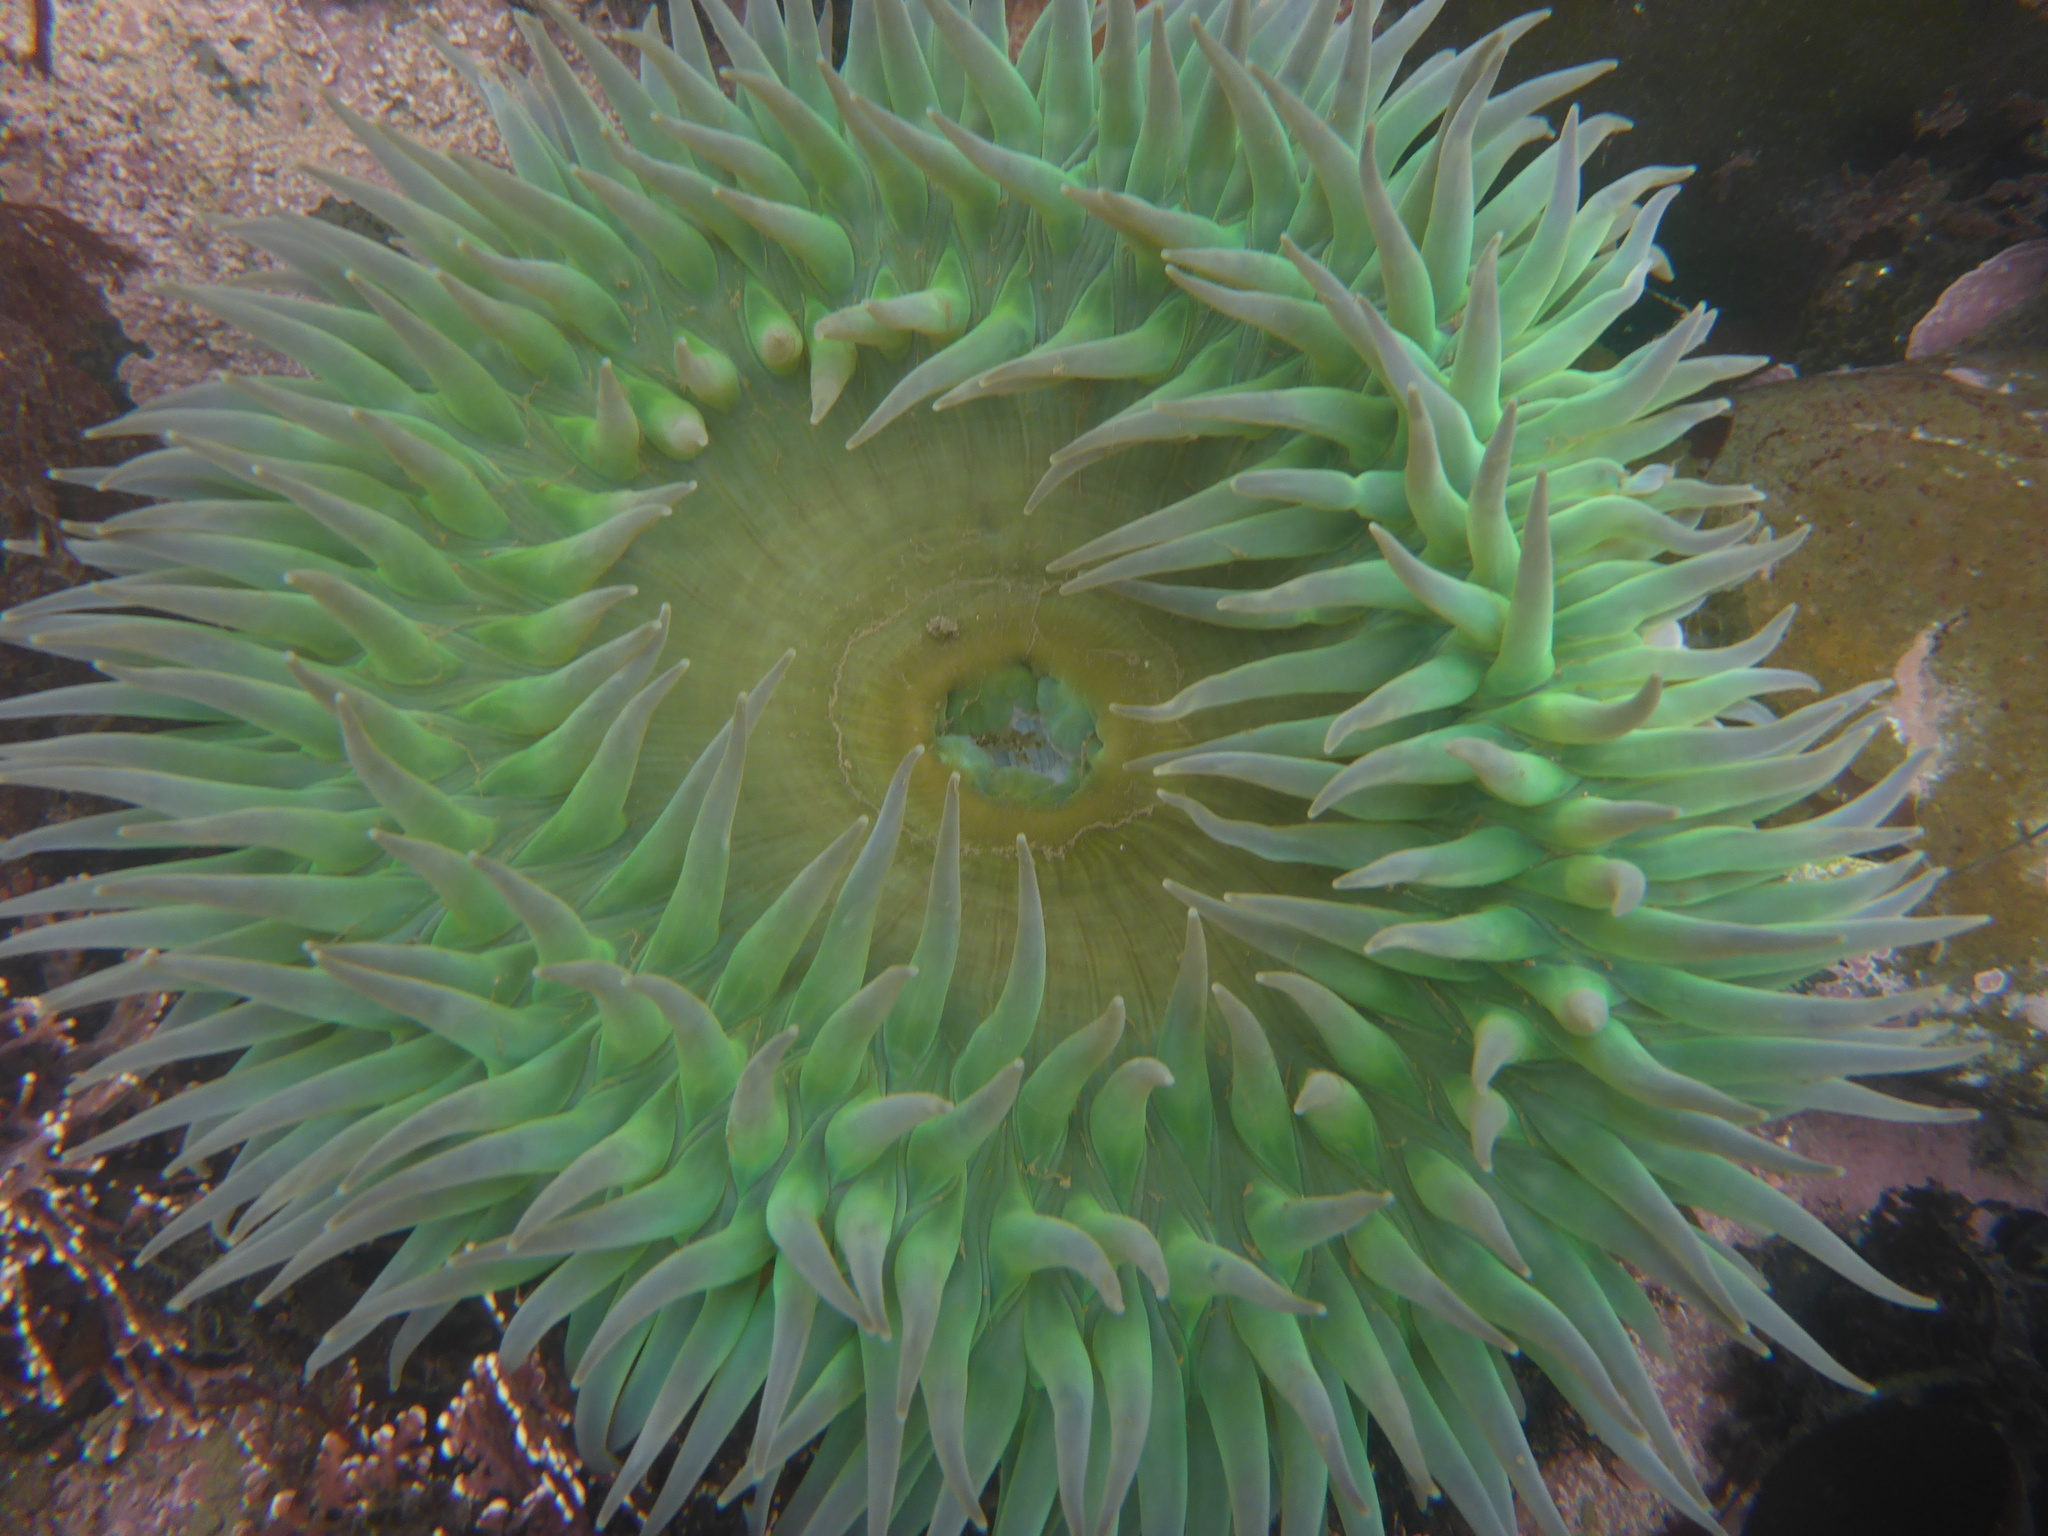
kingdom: Animalia
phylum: Cnidaria
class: Anthozoa
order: Actiniaria
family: Actiniidae
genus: Anthopleura
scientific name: Anthopleura xanthogrammica
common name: Giant green anemone
